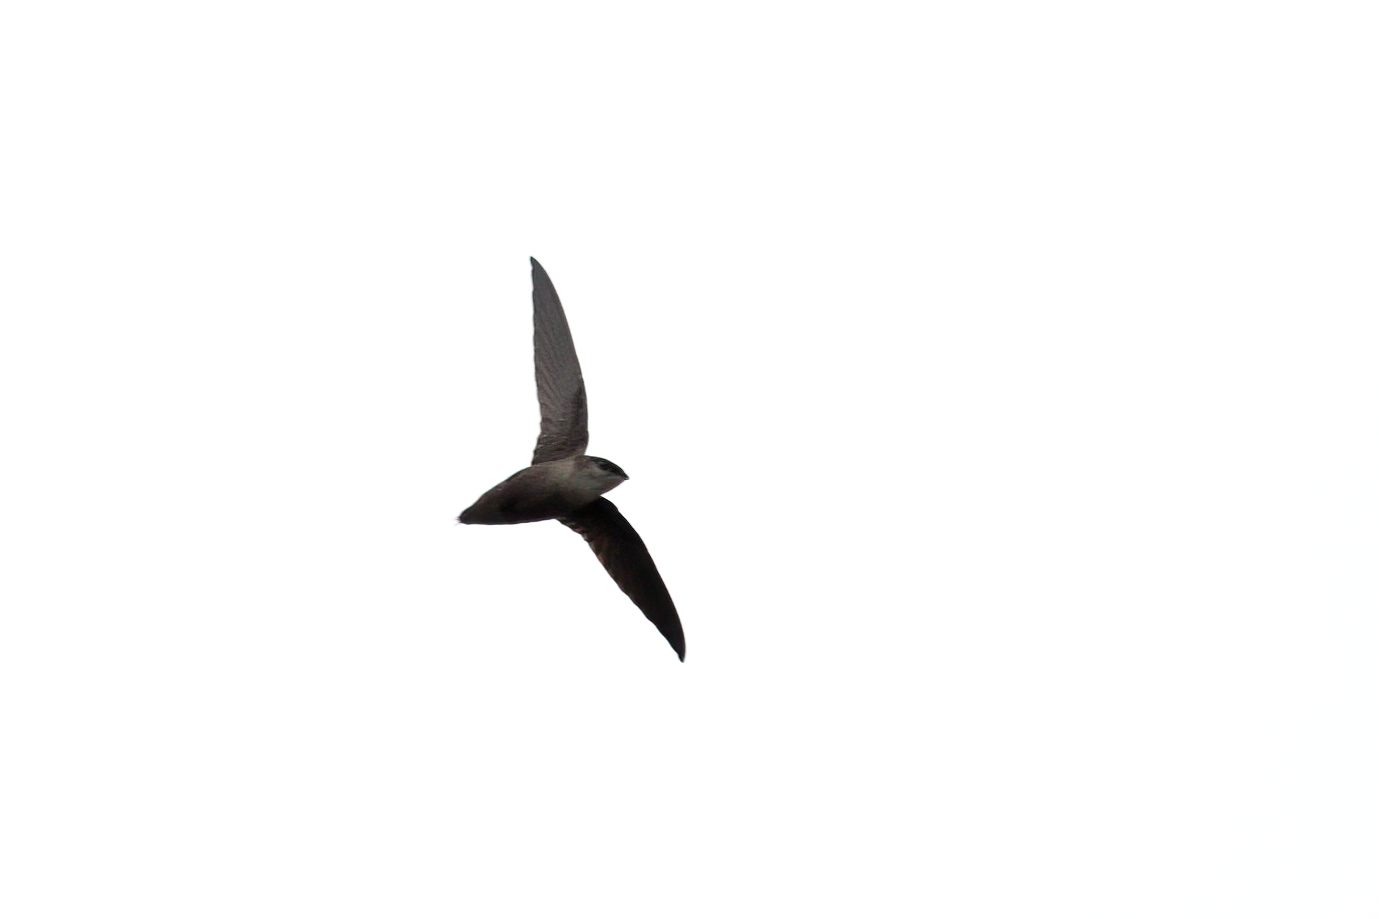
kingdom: Animalia
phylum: Chordata
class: Aves
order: Apodiformes
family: Apodidae
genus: Chaetura
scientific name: Chaetura pelagica
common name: Chimney swift
